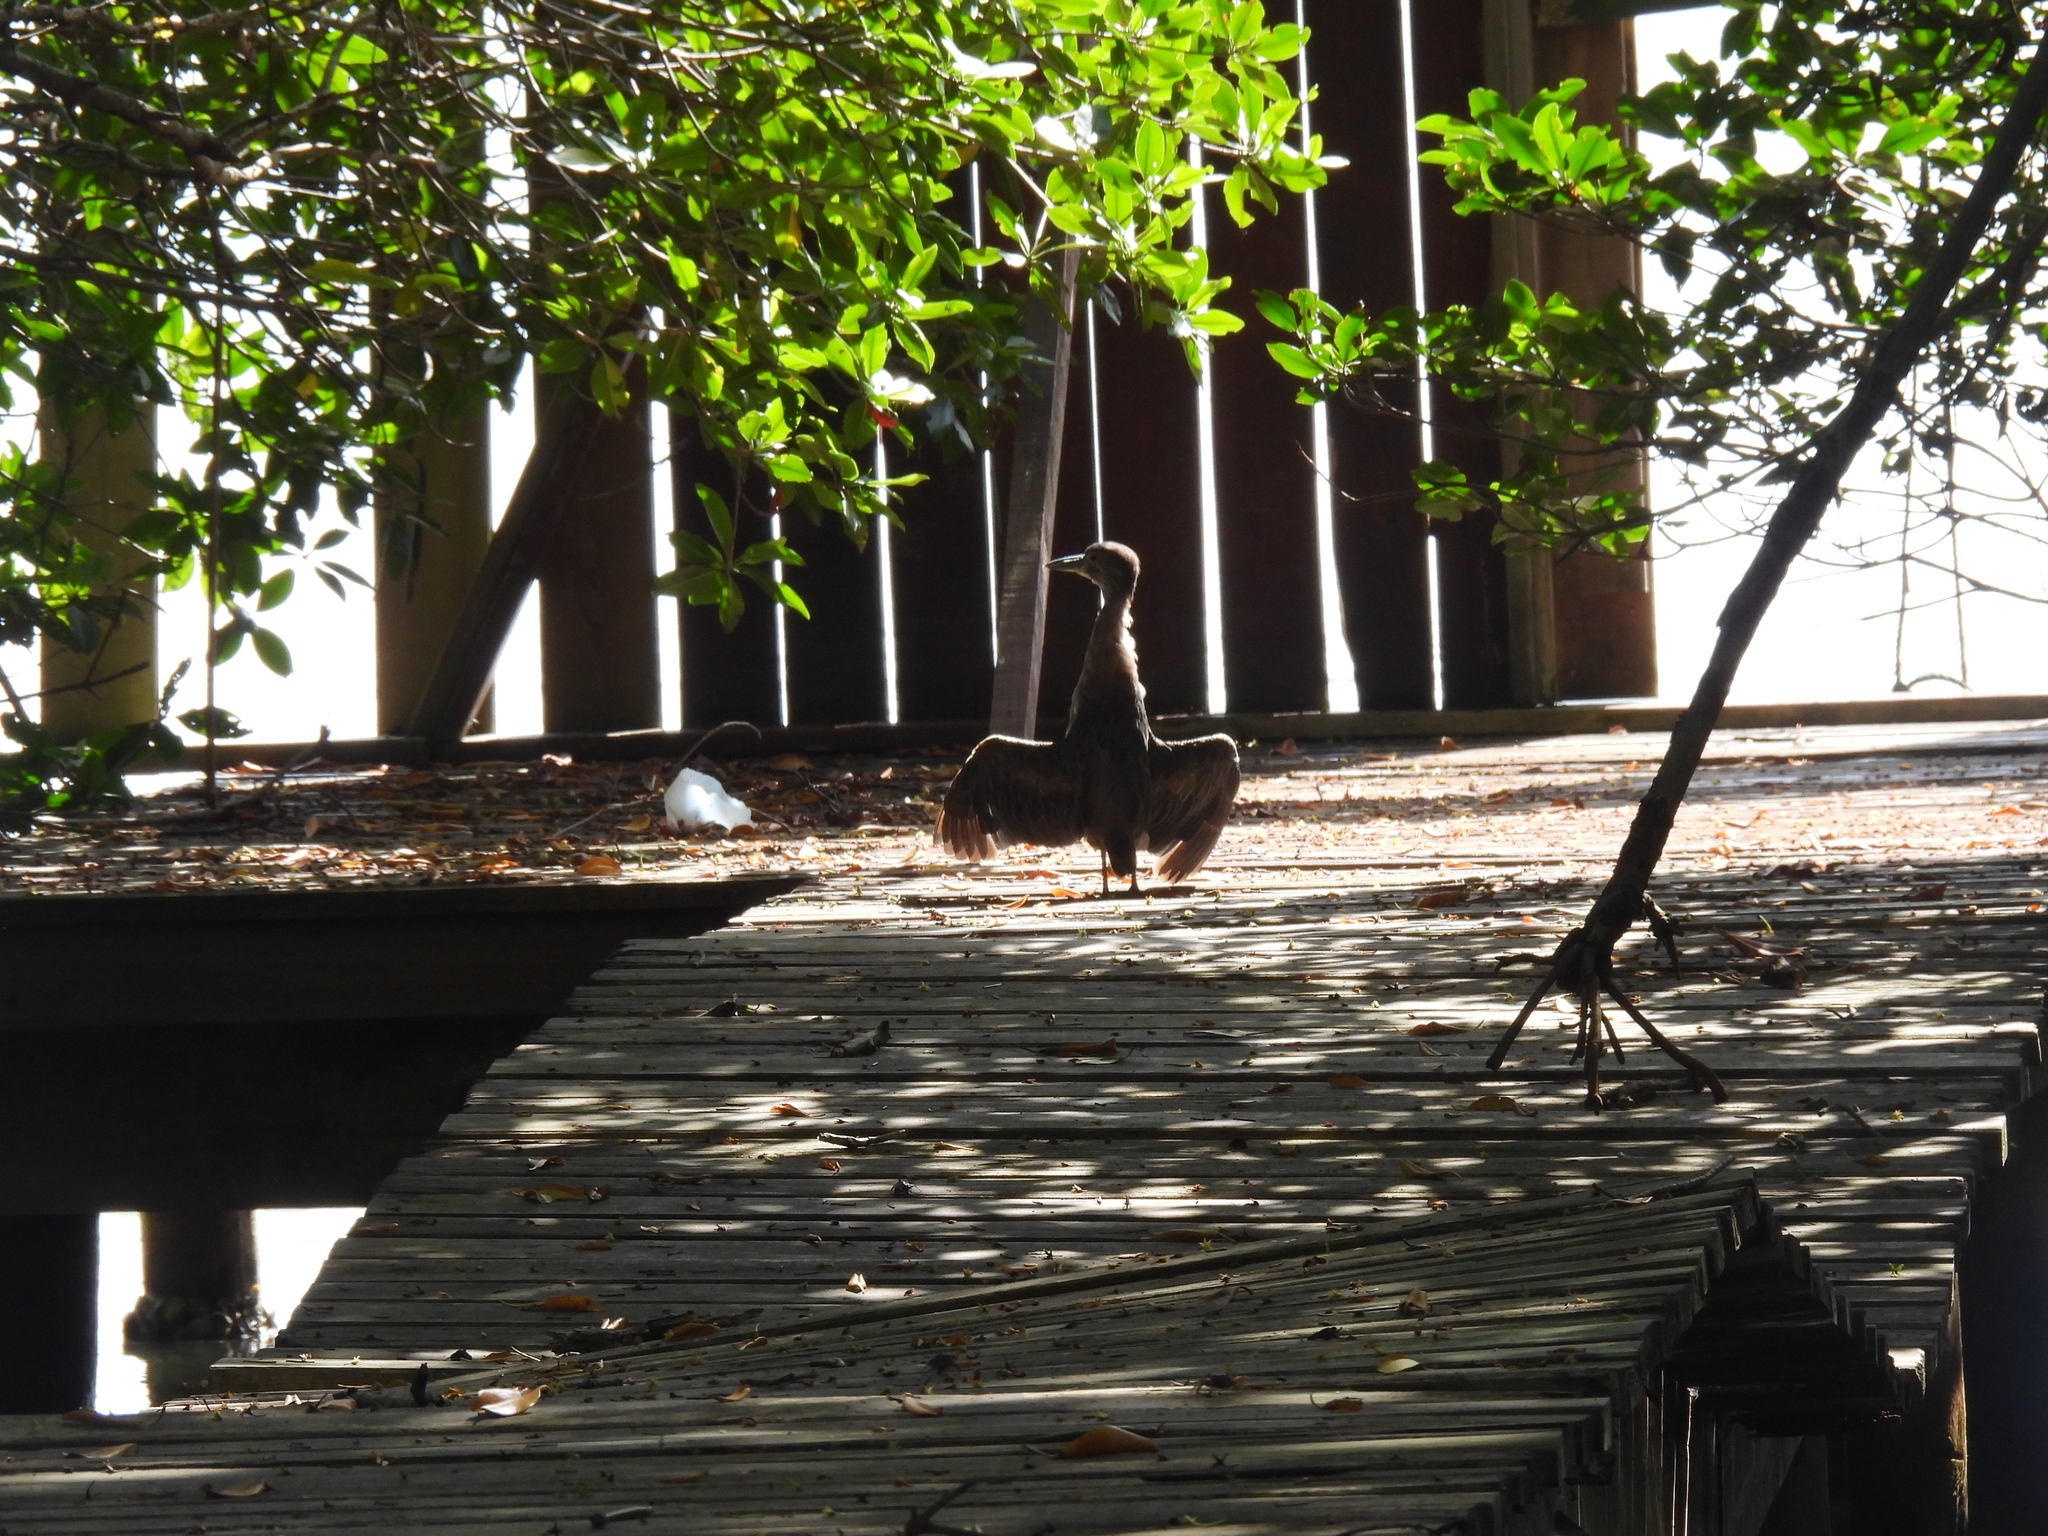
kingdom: Animalia
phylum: Chordata
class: Aves
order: Pelecaniformes
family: Ardeidae
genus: Nyctanassa
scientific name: Nyctanassa violacea
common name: Yellow-crowned night heron
